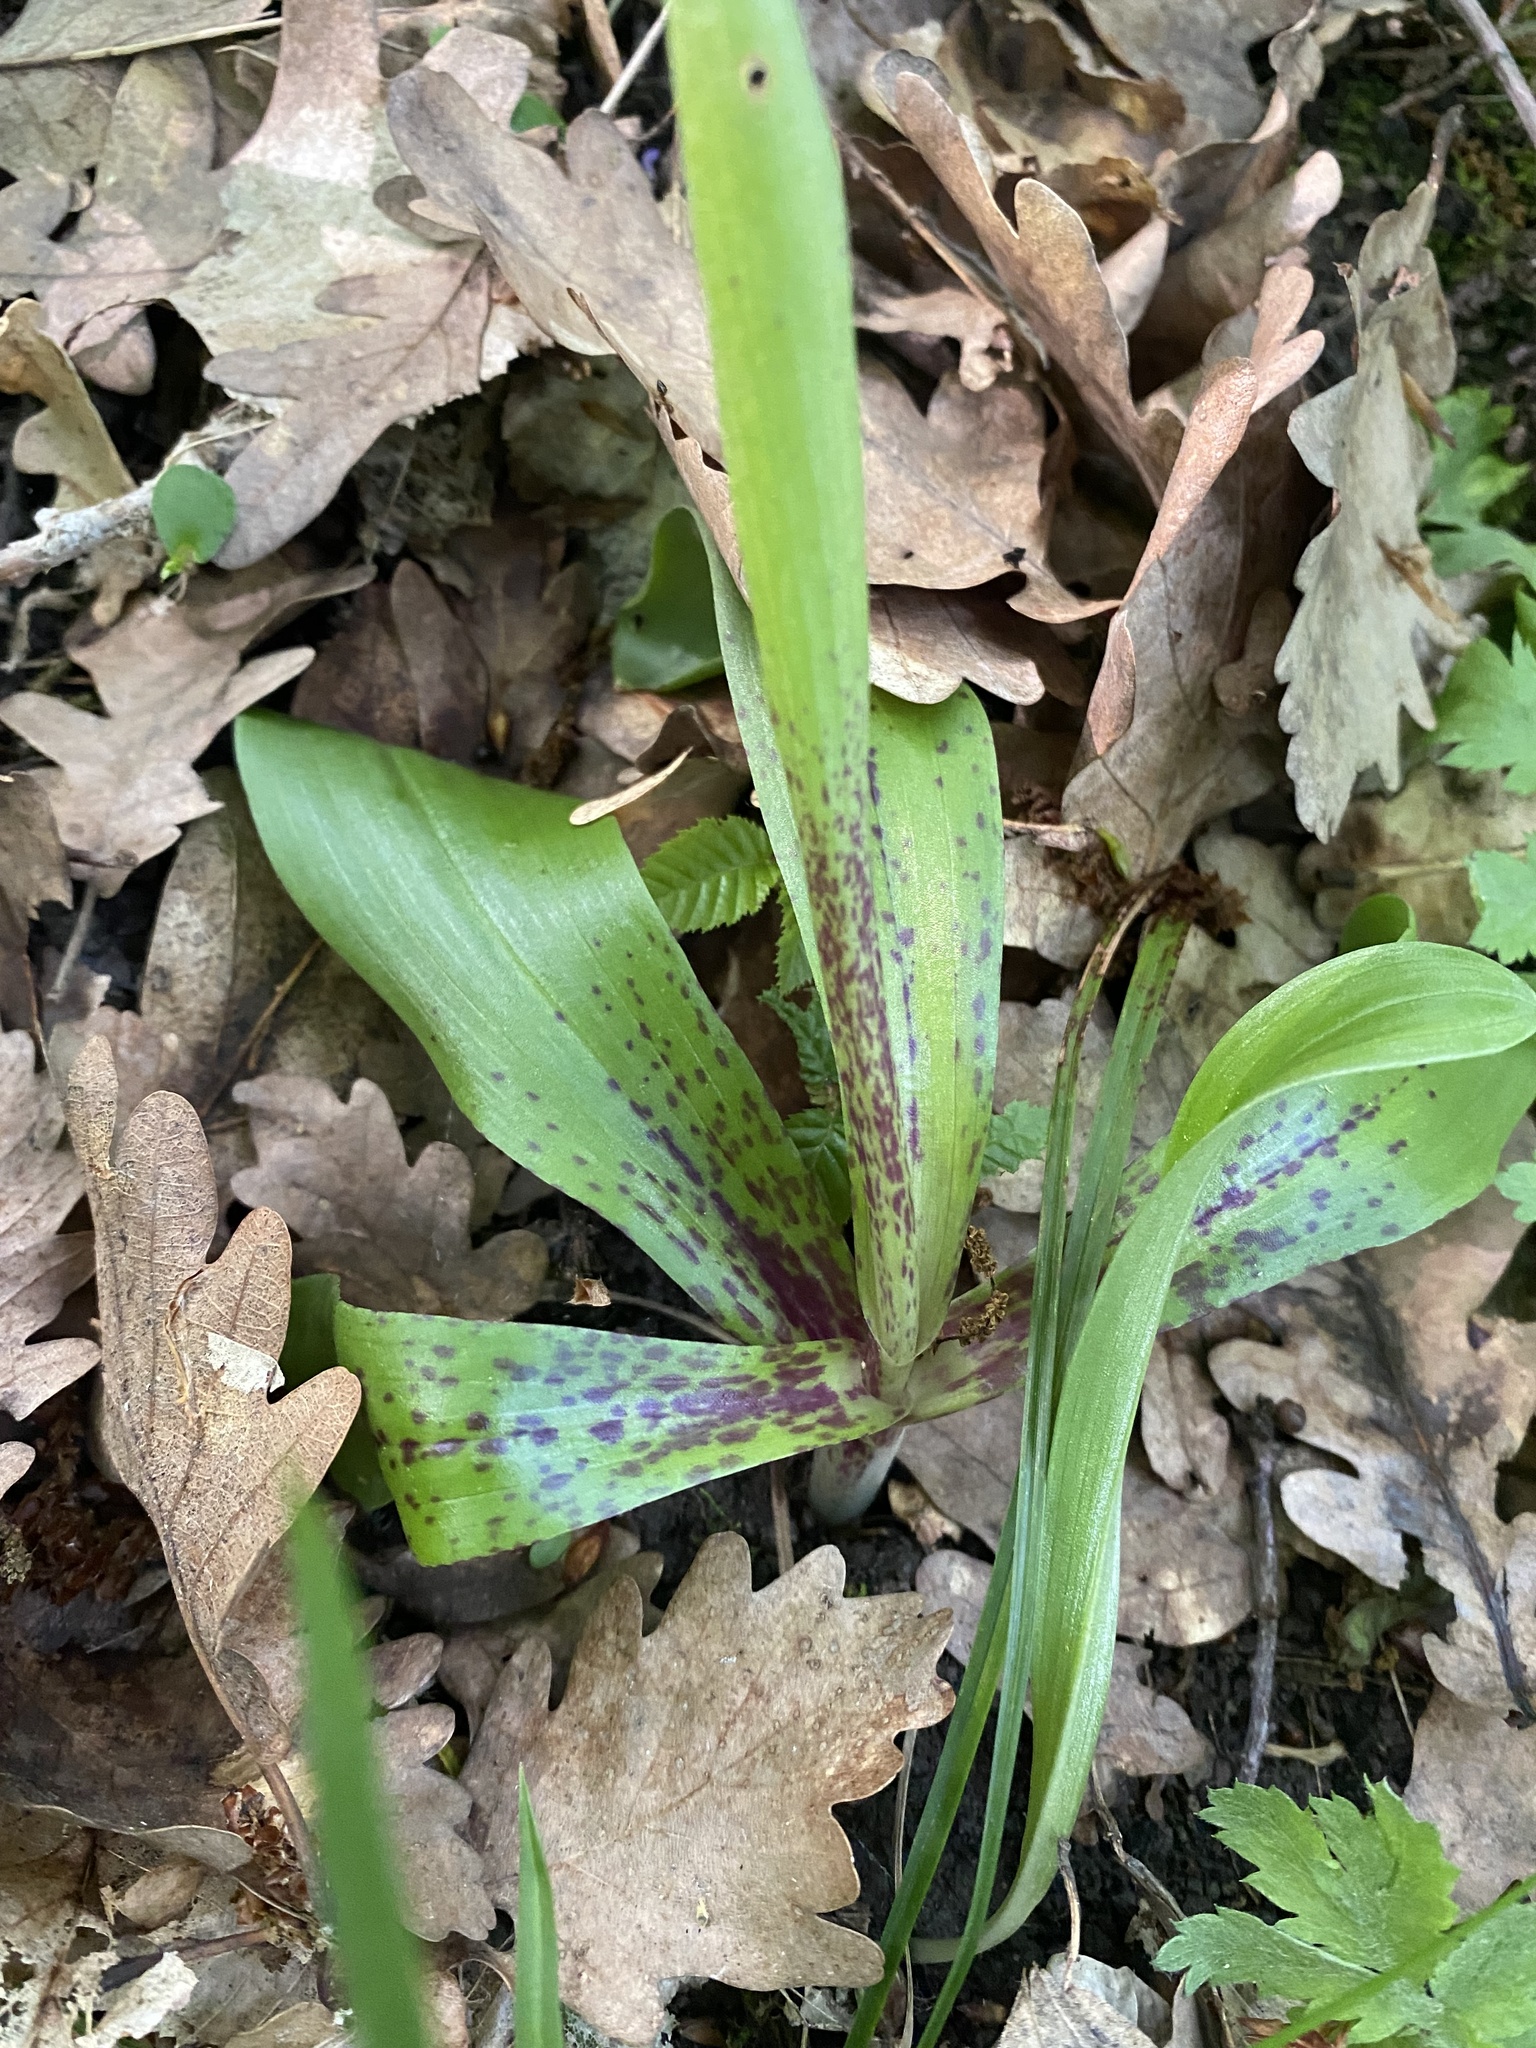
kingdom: Plantae
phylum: Tracheophyta
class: Liliopsida
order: Asparagales
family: Orchidaceae
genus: Orchis
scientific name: Orchis mascula
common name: Early-purple orchid
